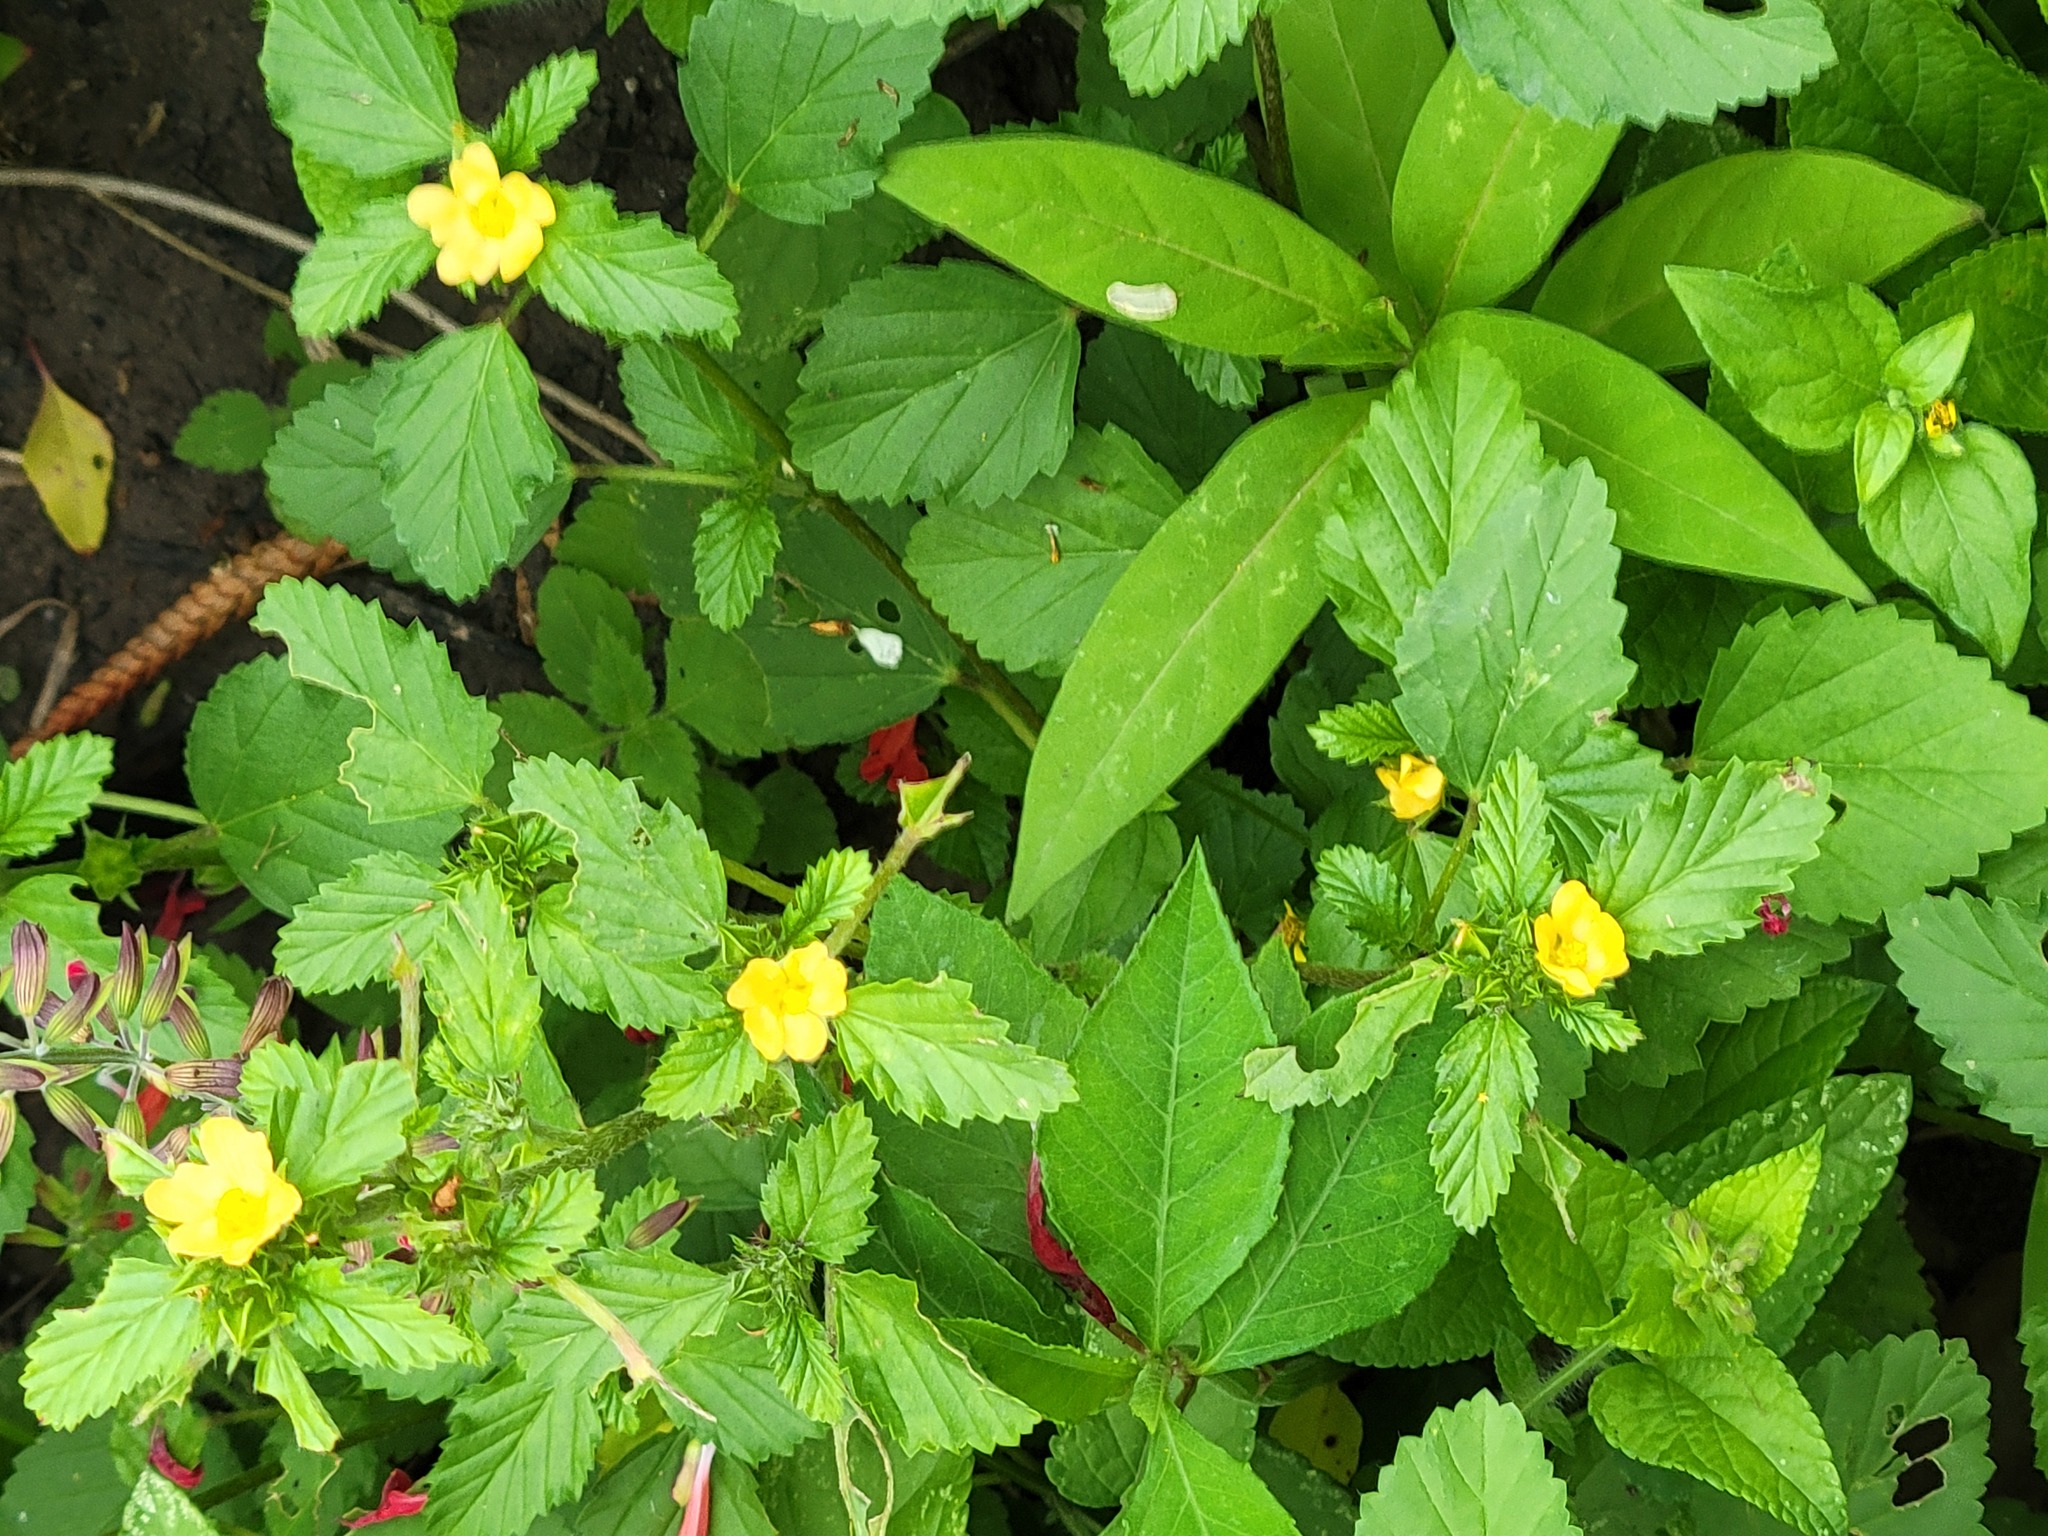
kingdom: Plantae
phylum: Tracheophyta
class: Magnoliopsida
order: Malvales
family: Malvaceae
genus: Malvastrum
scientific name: Malvastrum coromandelianum
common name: Threelobe false mallow
